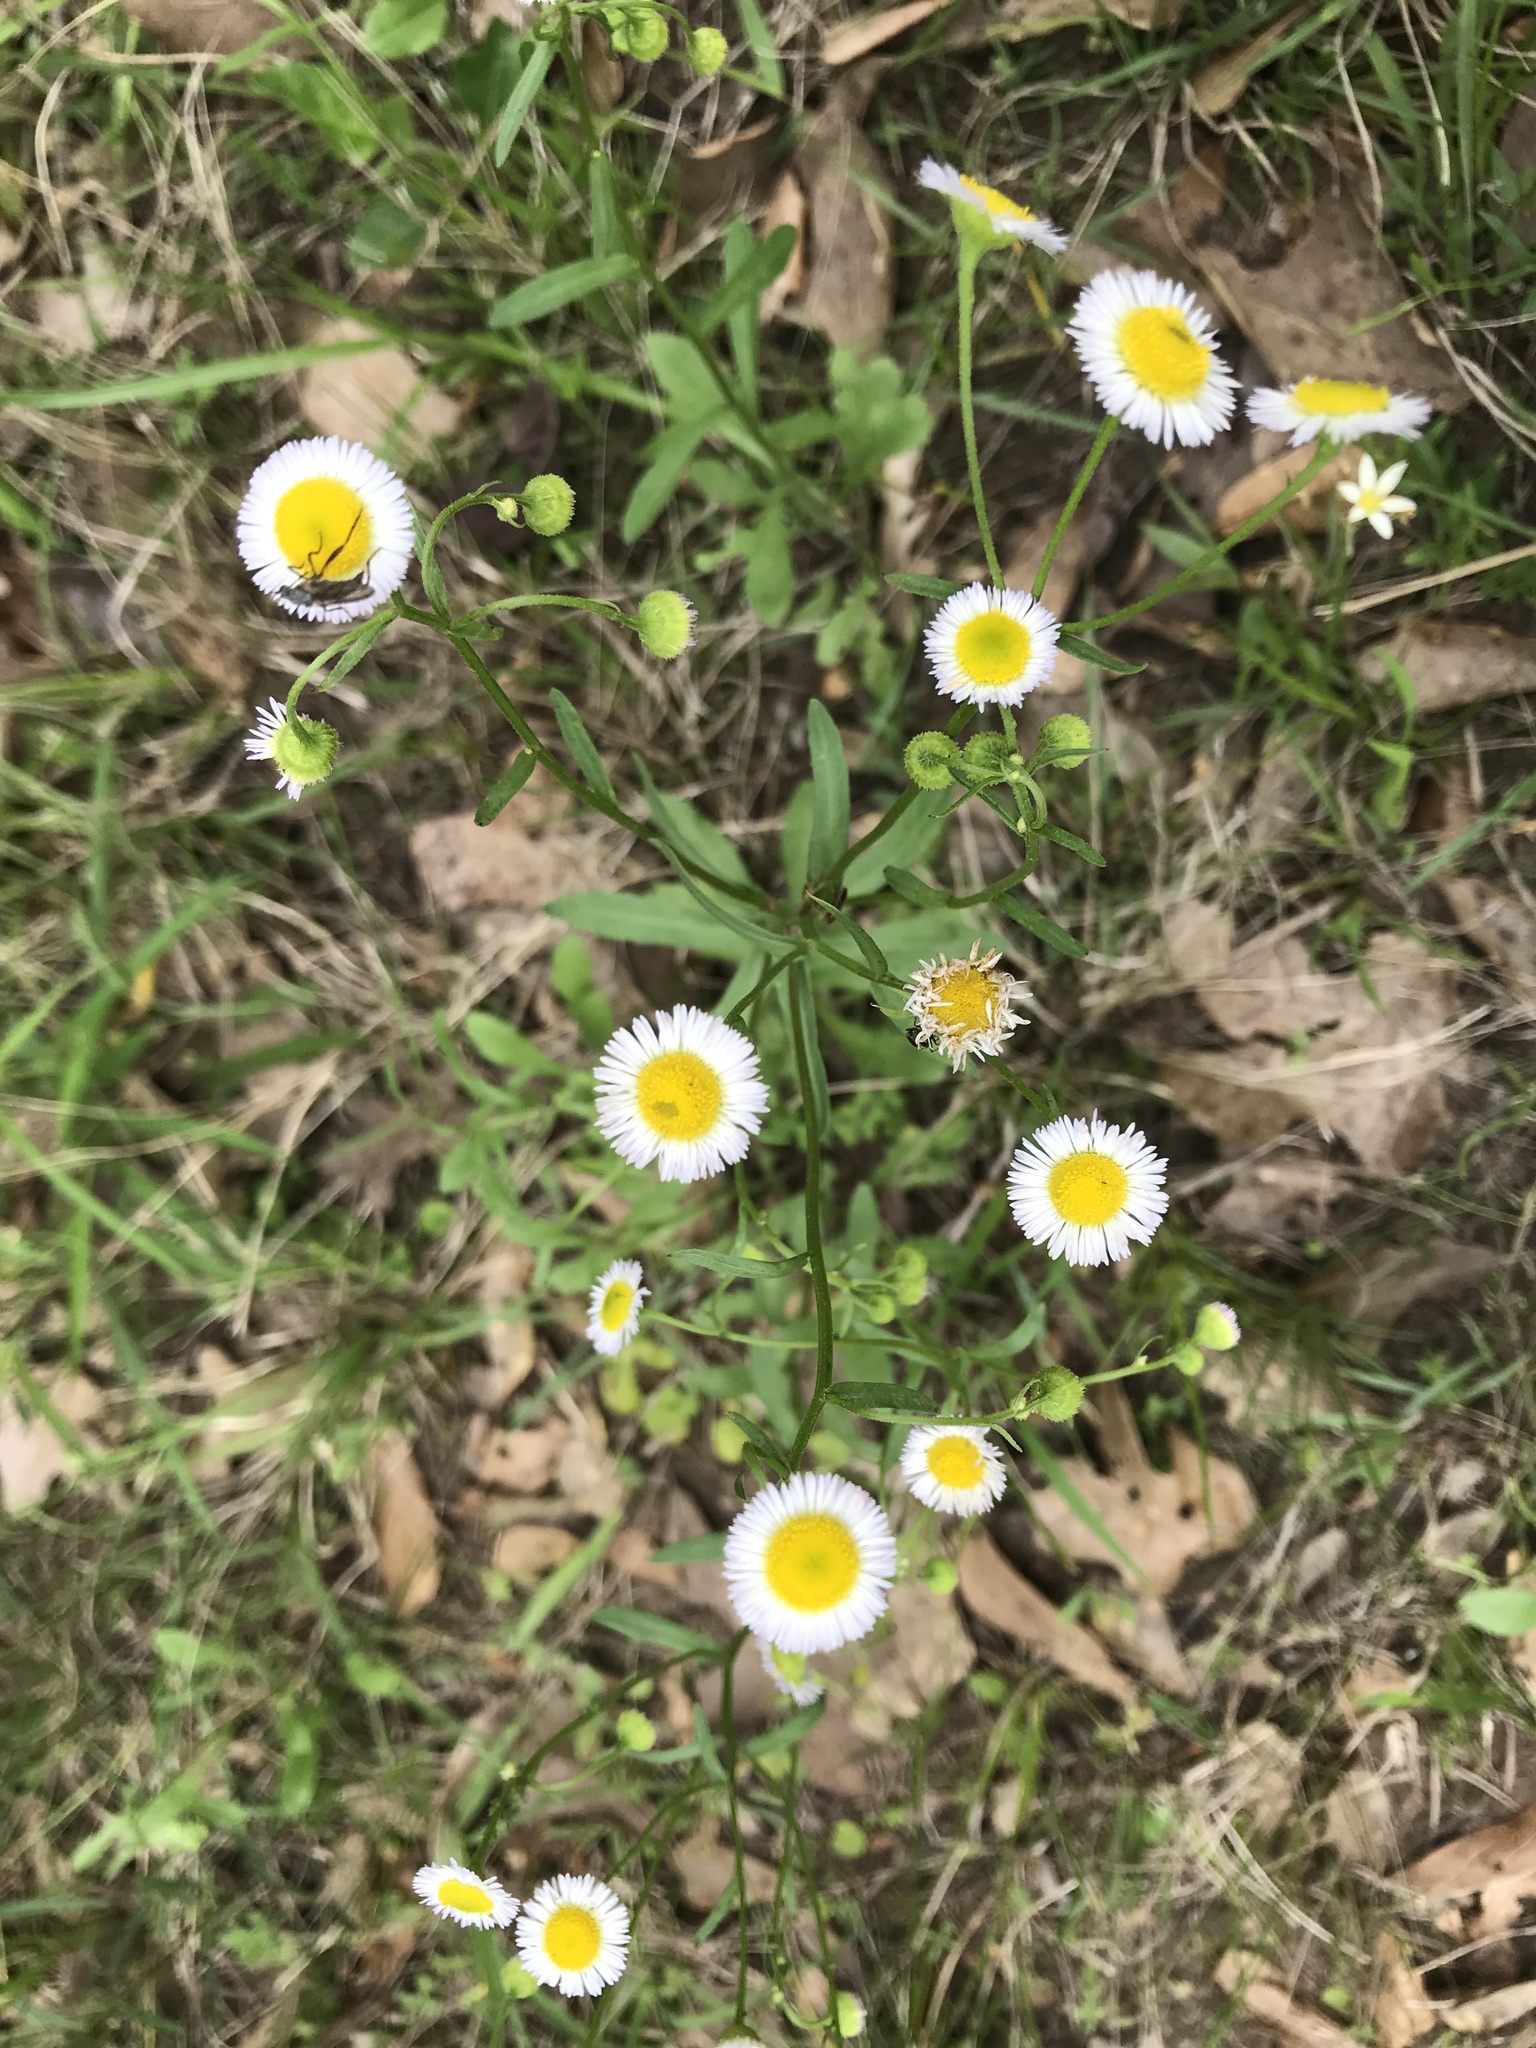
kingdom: Plantae
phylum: Tracheophyta
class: Magnoliopsida
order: Asterales
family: Asteraceae
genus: Erigeron
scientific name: Erigeron strigosus
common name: Common eastern fleabane
